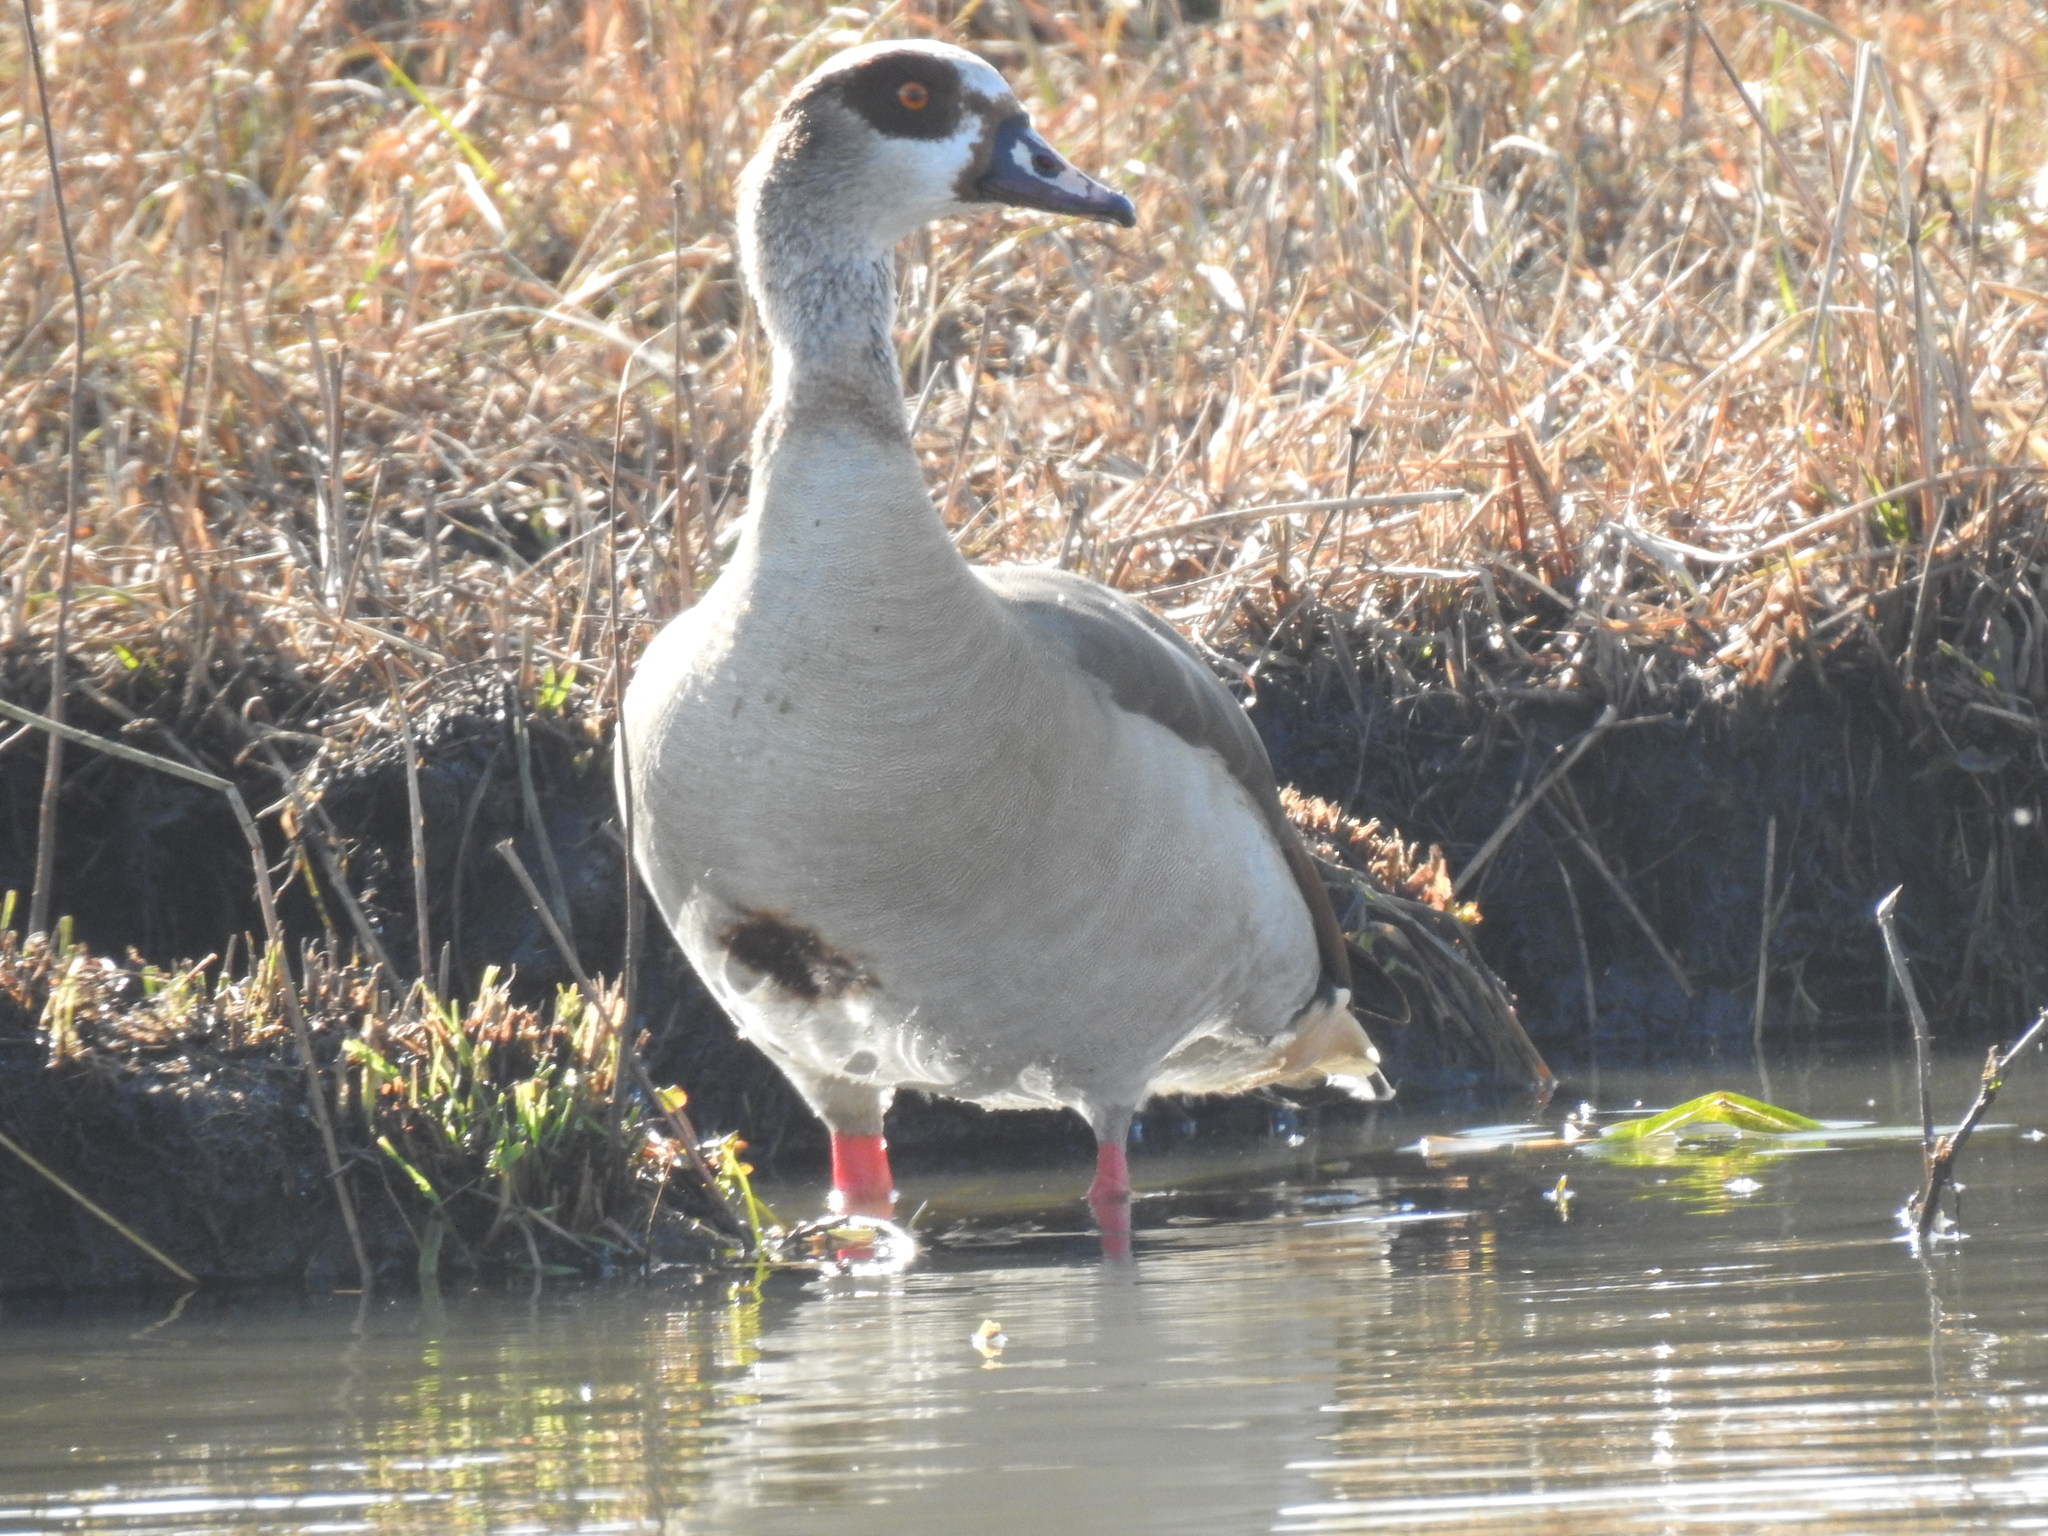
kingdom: Animalia
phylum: Chordata
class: Aves
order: Anseriformes
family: Anatidae
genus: Alopochen
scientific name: Alopochen aegyptiaca
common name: Egyptian goose
